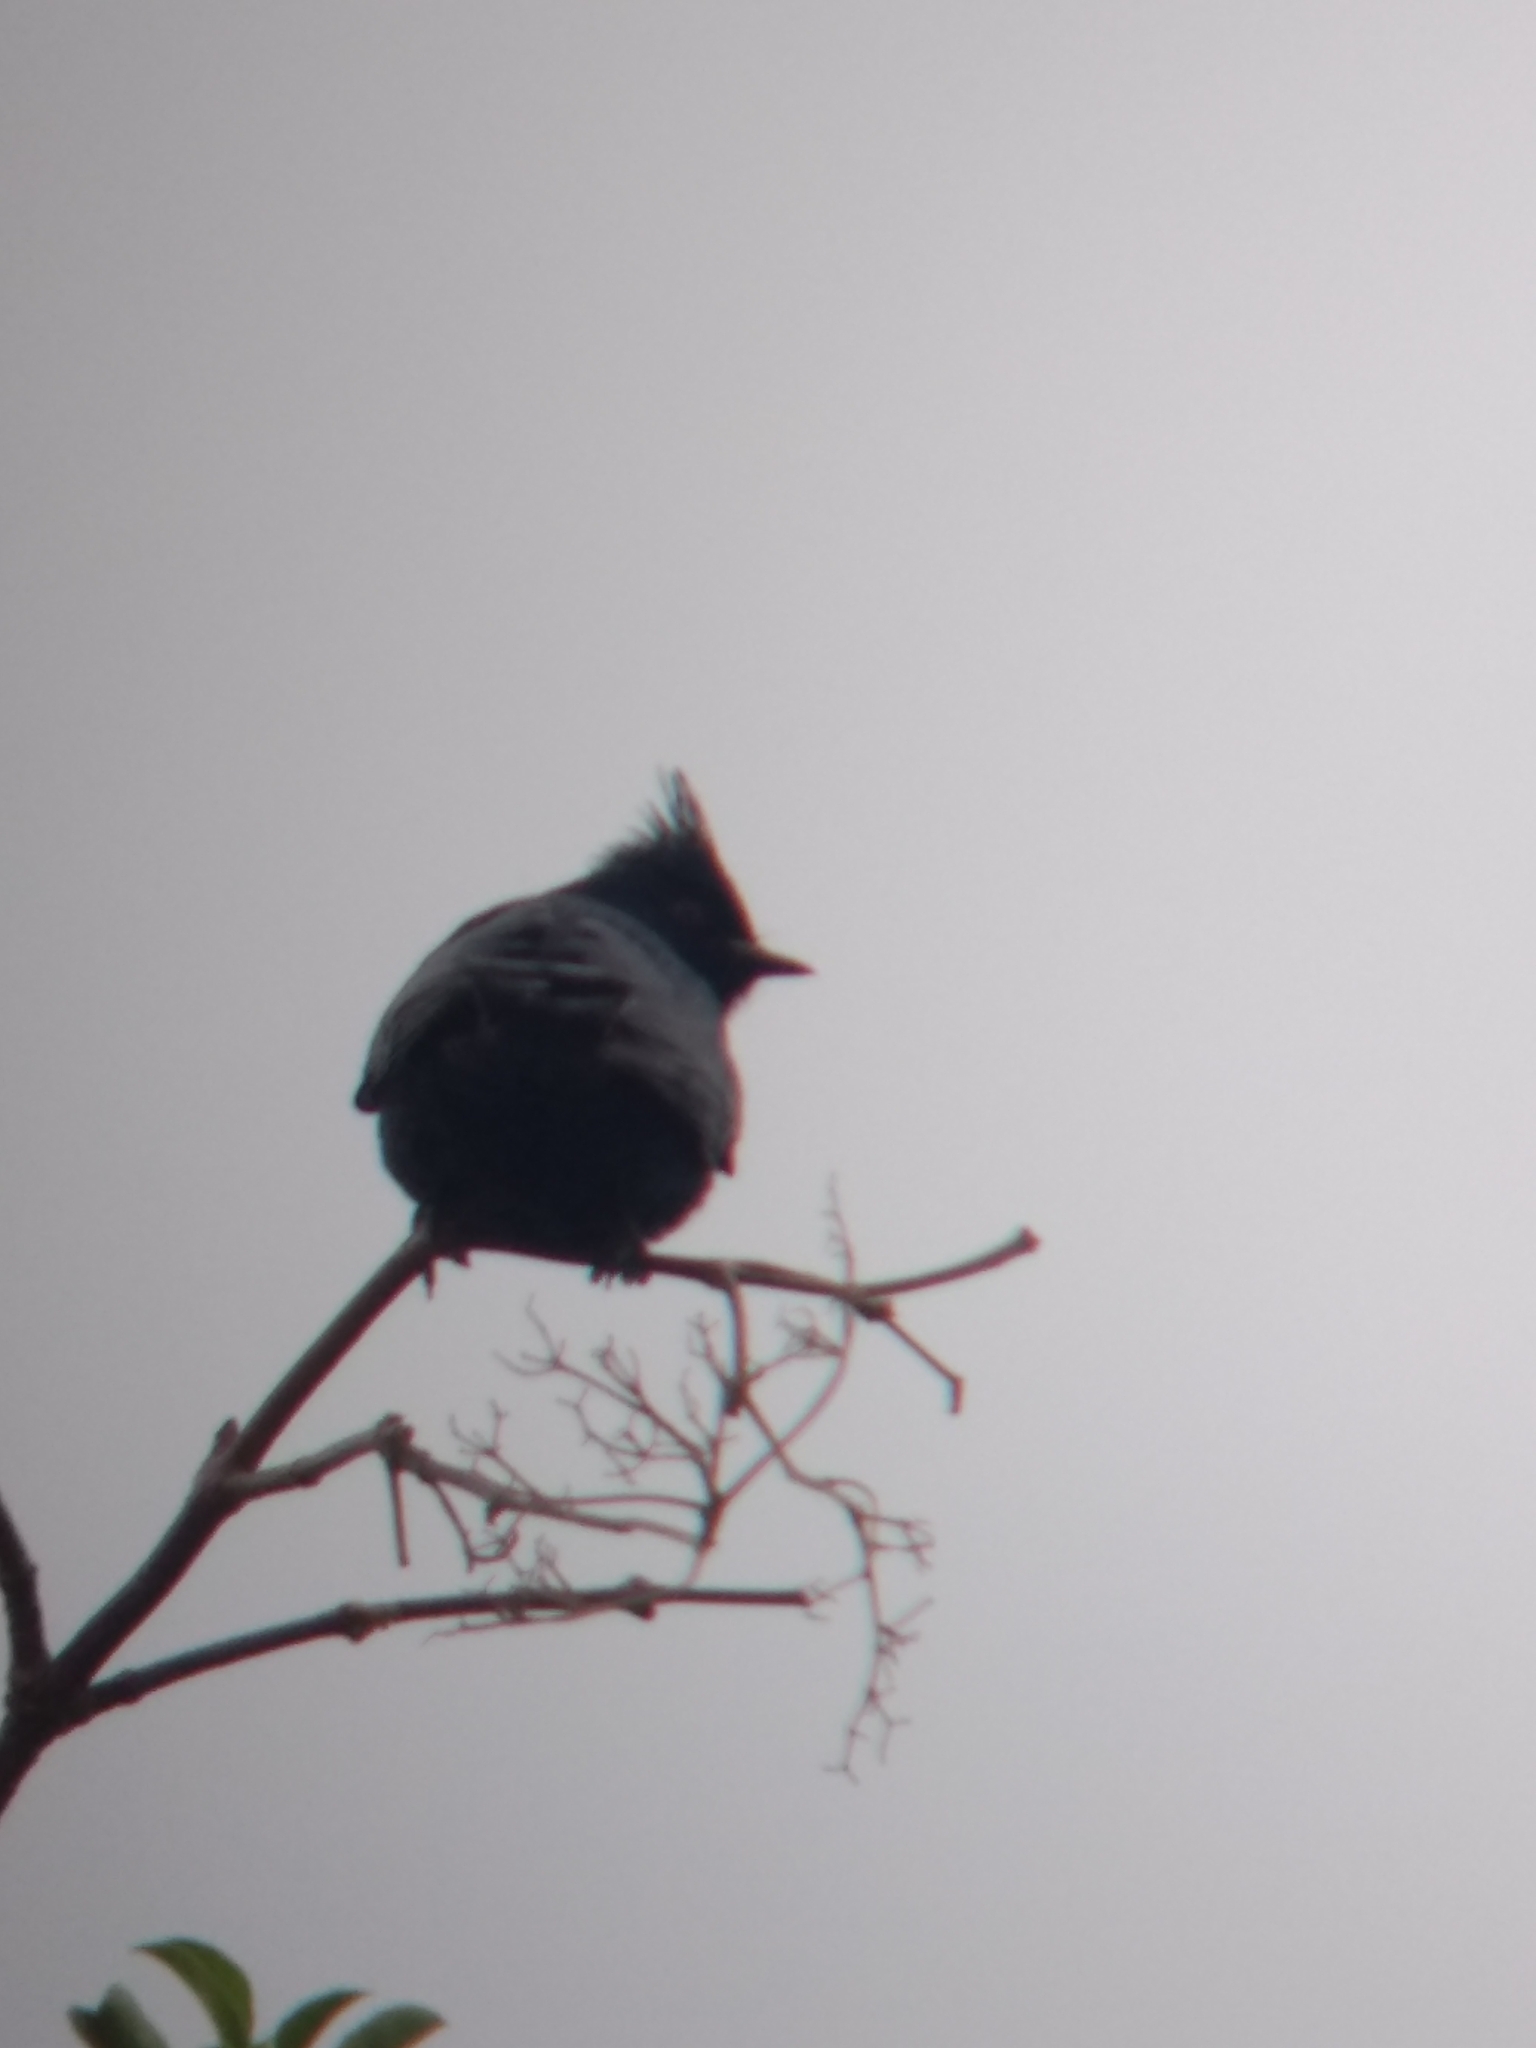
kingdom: Animalia
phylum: Chordata
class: Aves
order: Passeriformes
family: Ptilogonatidae
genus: Phainopepla
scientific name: Phainopepla nitens
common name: Phainopepla
